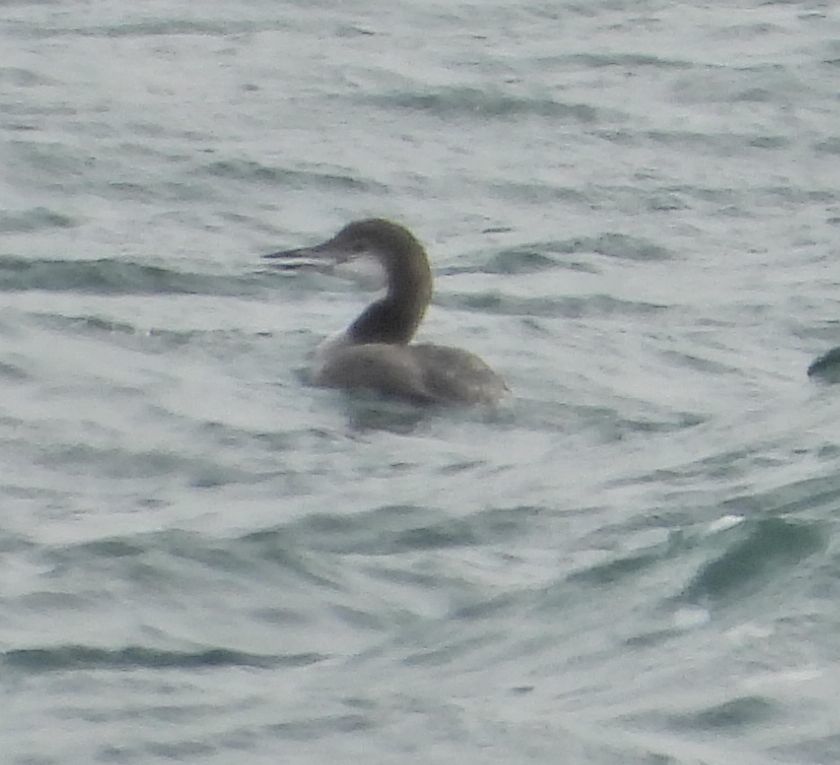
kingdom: Animalia
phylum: Chordata
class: Aves
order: Gaviiformes
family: Gaviidae
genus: Gavia
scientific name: Gavia immer
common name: Common loon
